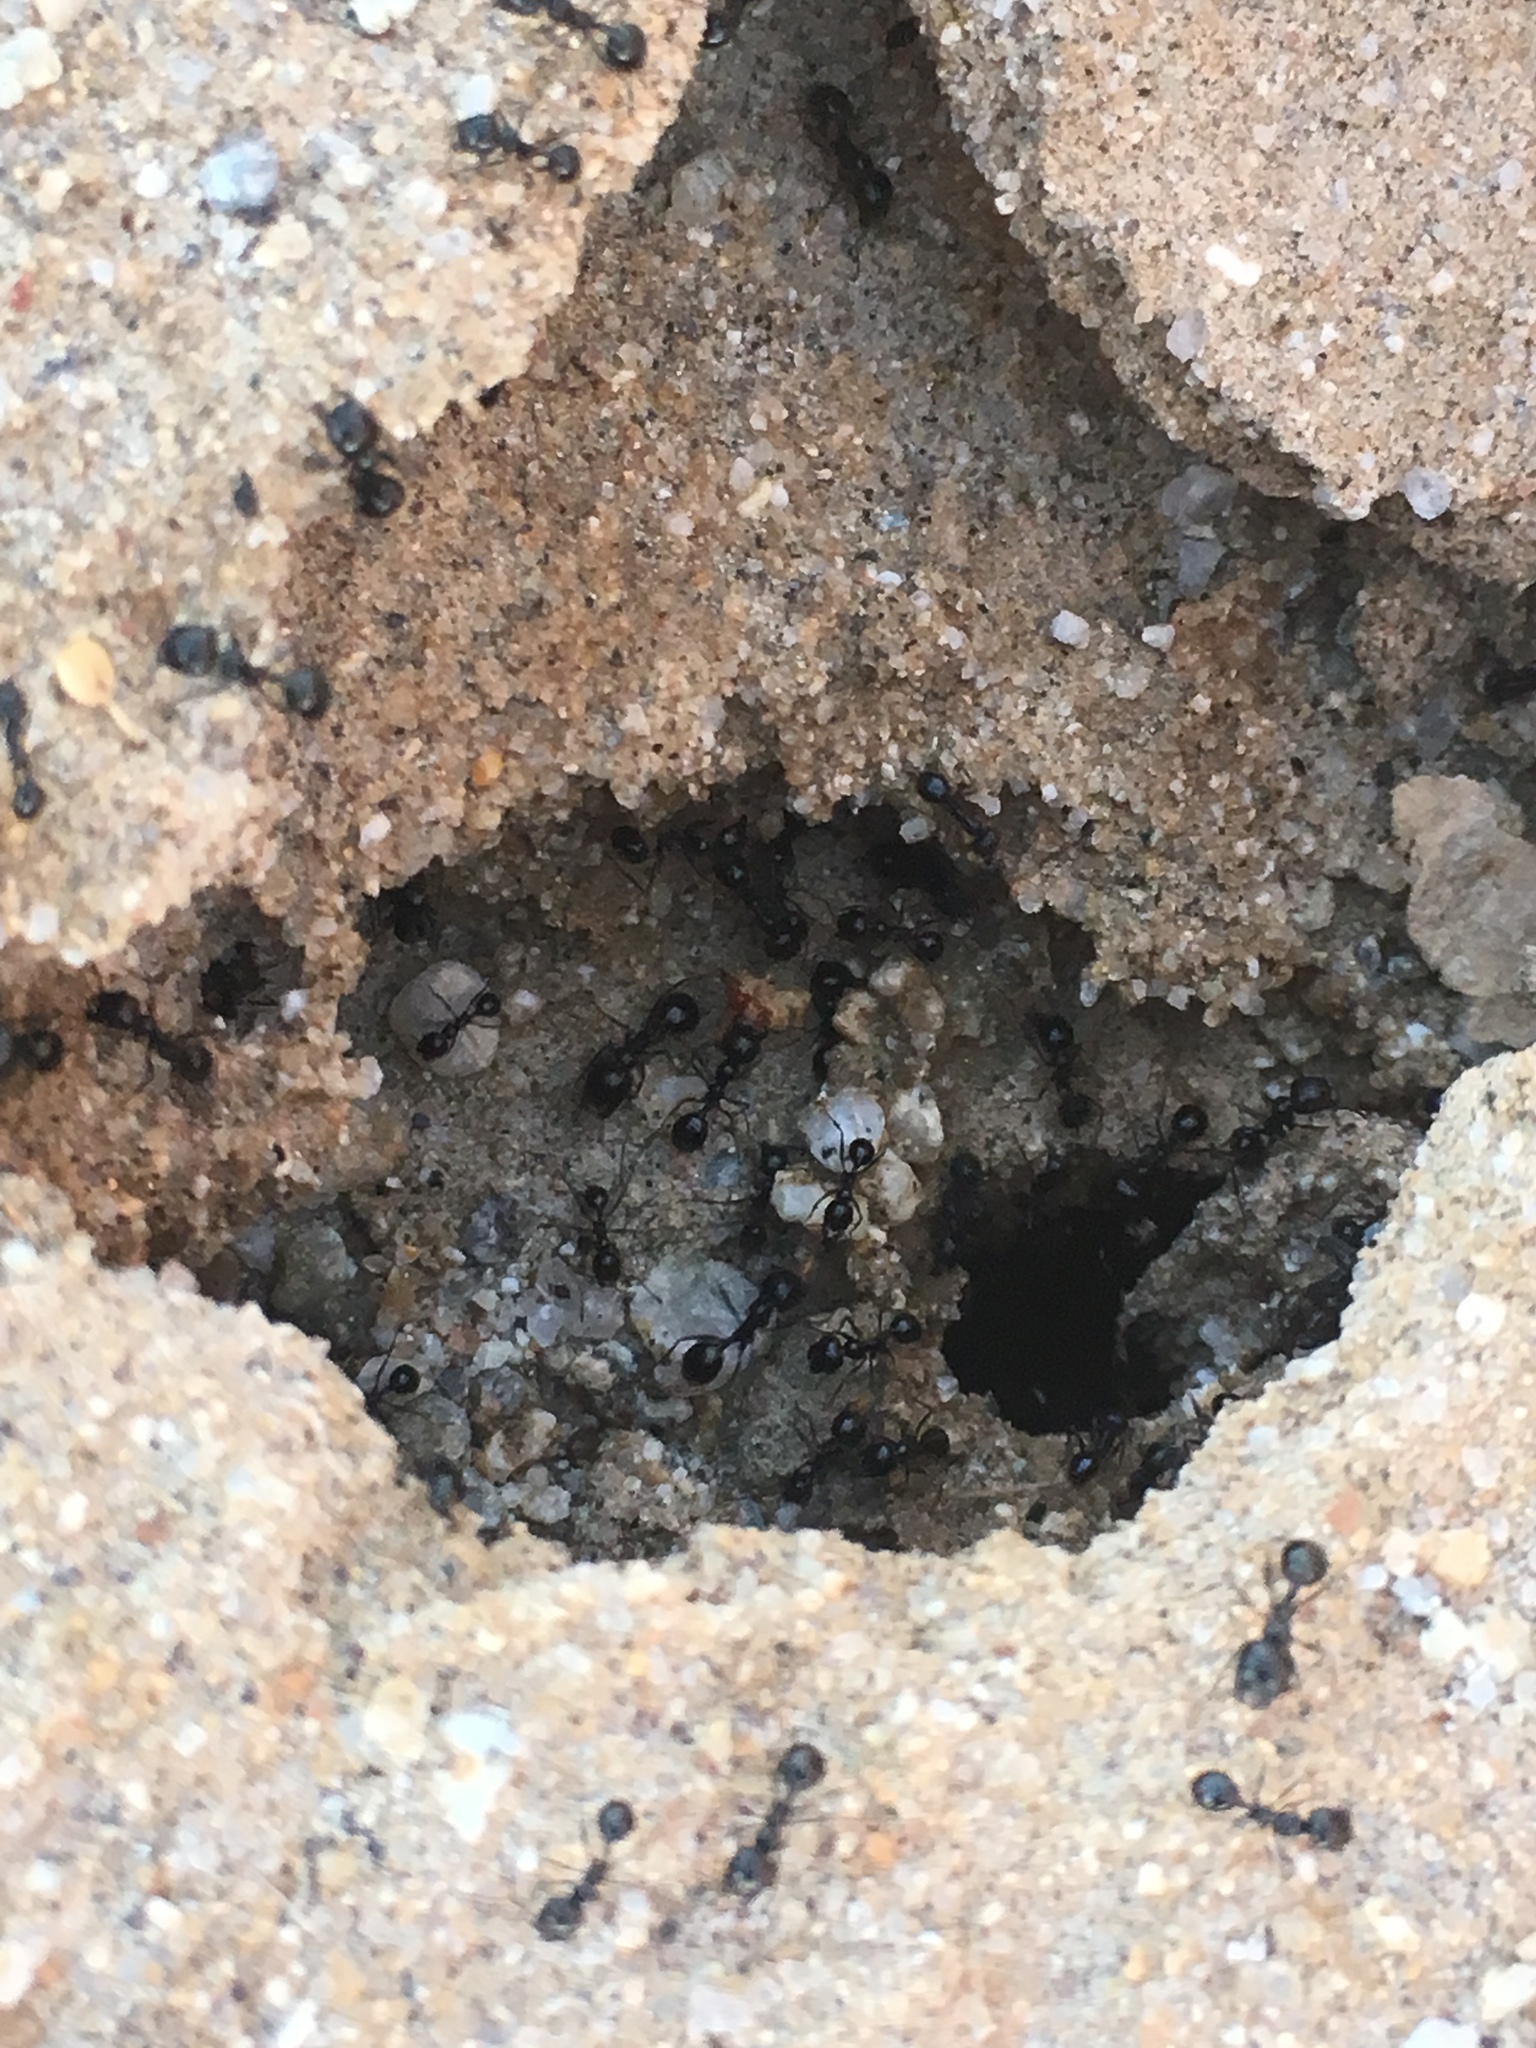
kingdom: Animalia
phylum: Arthropoda
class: Insecta
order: Hymenoptera
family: Formicidae
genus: Messor
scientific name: Messor pergandei
